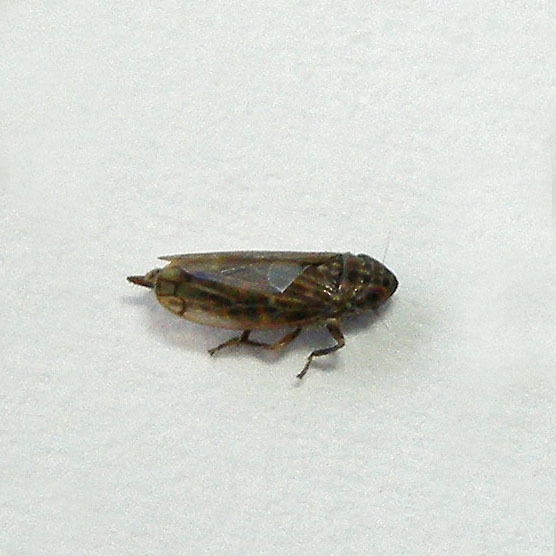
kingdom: Animalia
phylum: Arthropoda
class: Insecta
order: Hemiptera
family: Cicadellidae
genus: Stirellus
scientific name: Stirellus bicolor
